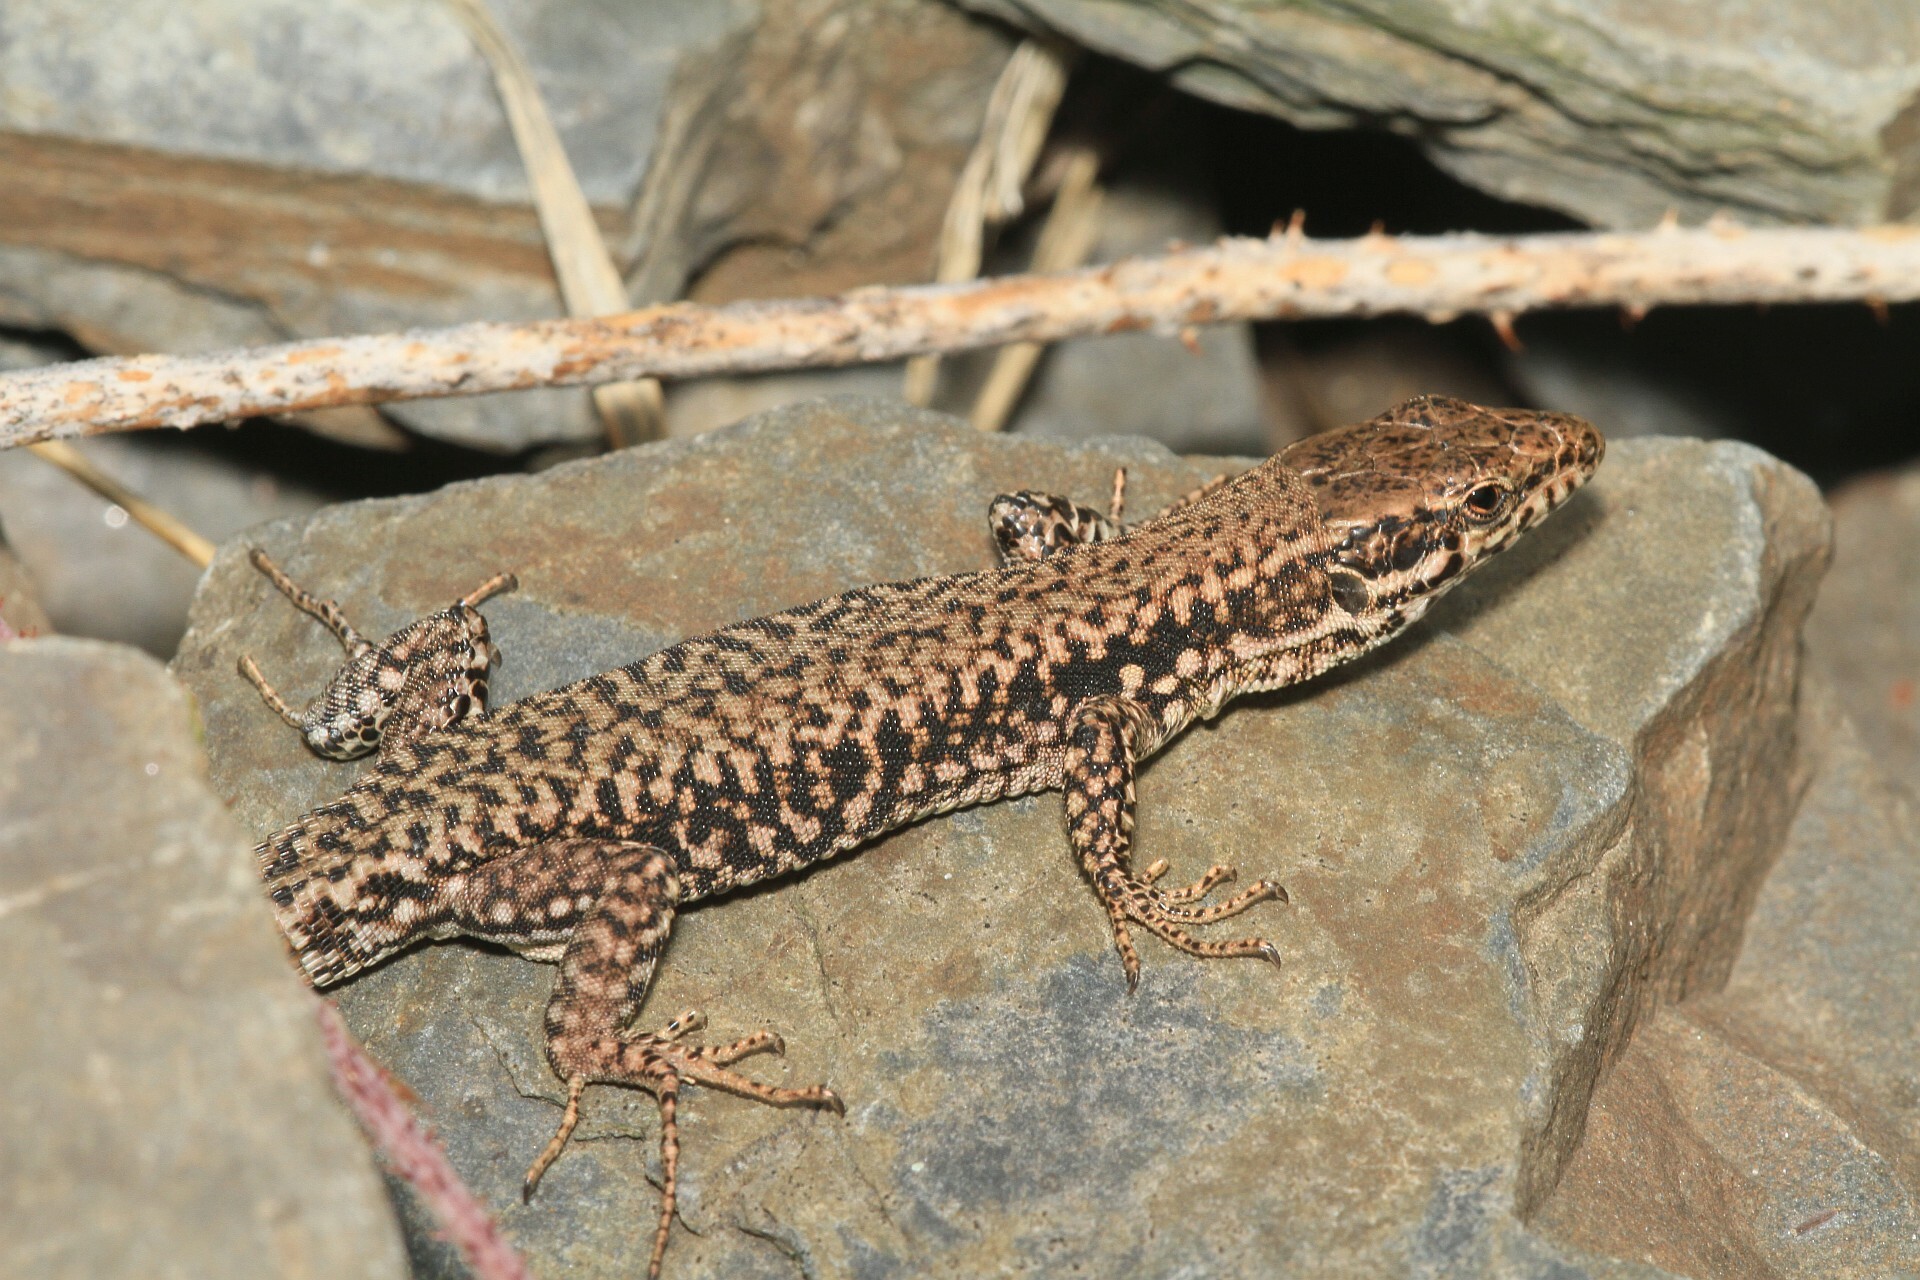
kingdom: Animalia
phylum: Chordata
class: Squamata
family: Lacertidae
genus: Podarcis
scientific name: Podarcis muralis
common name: Common wall lizard
